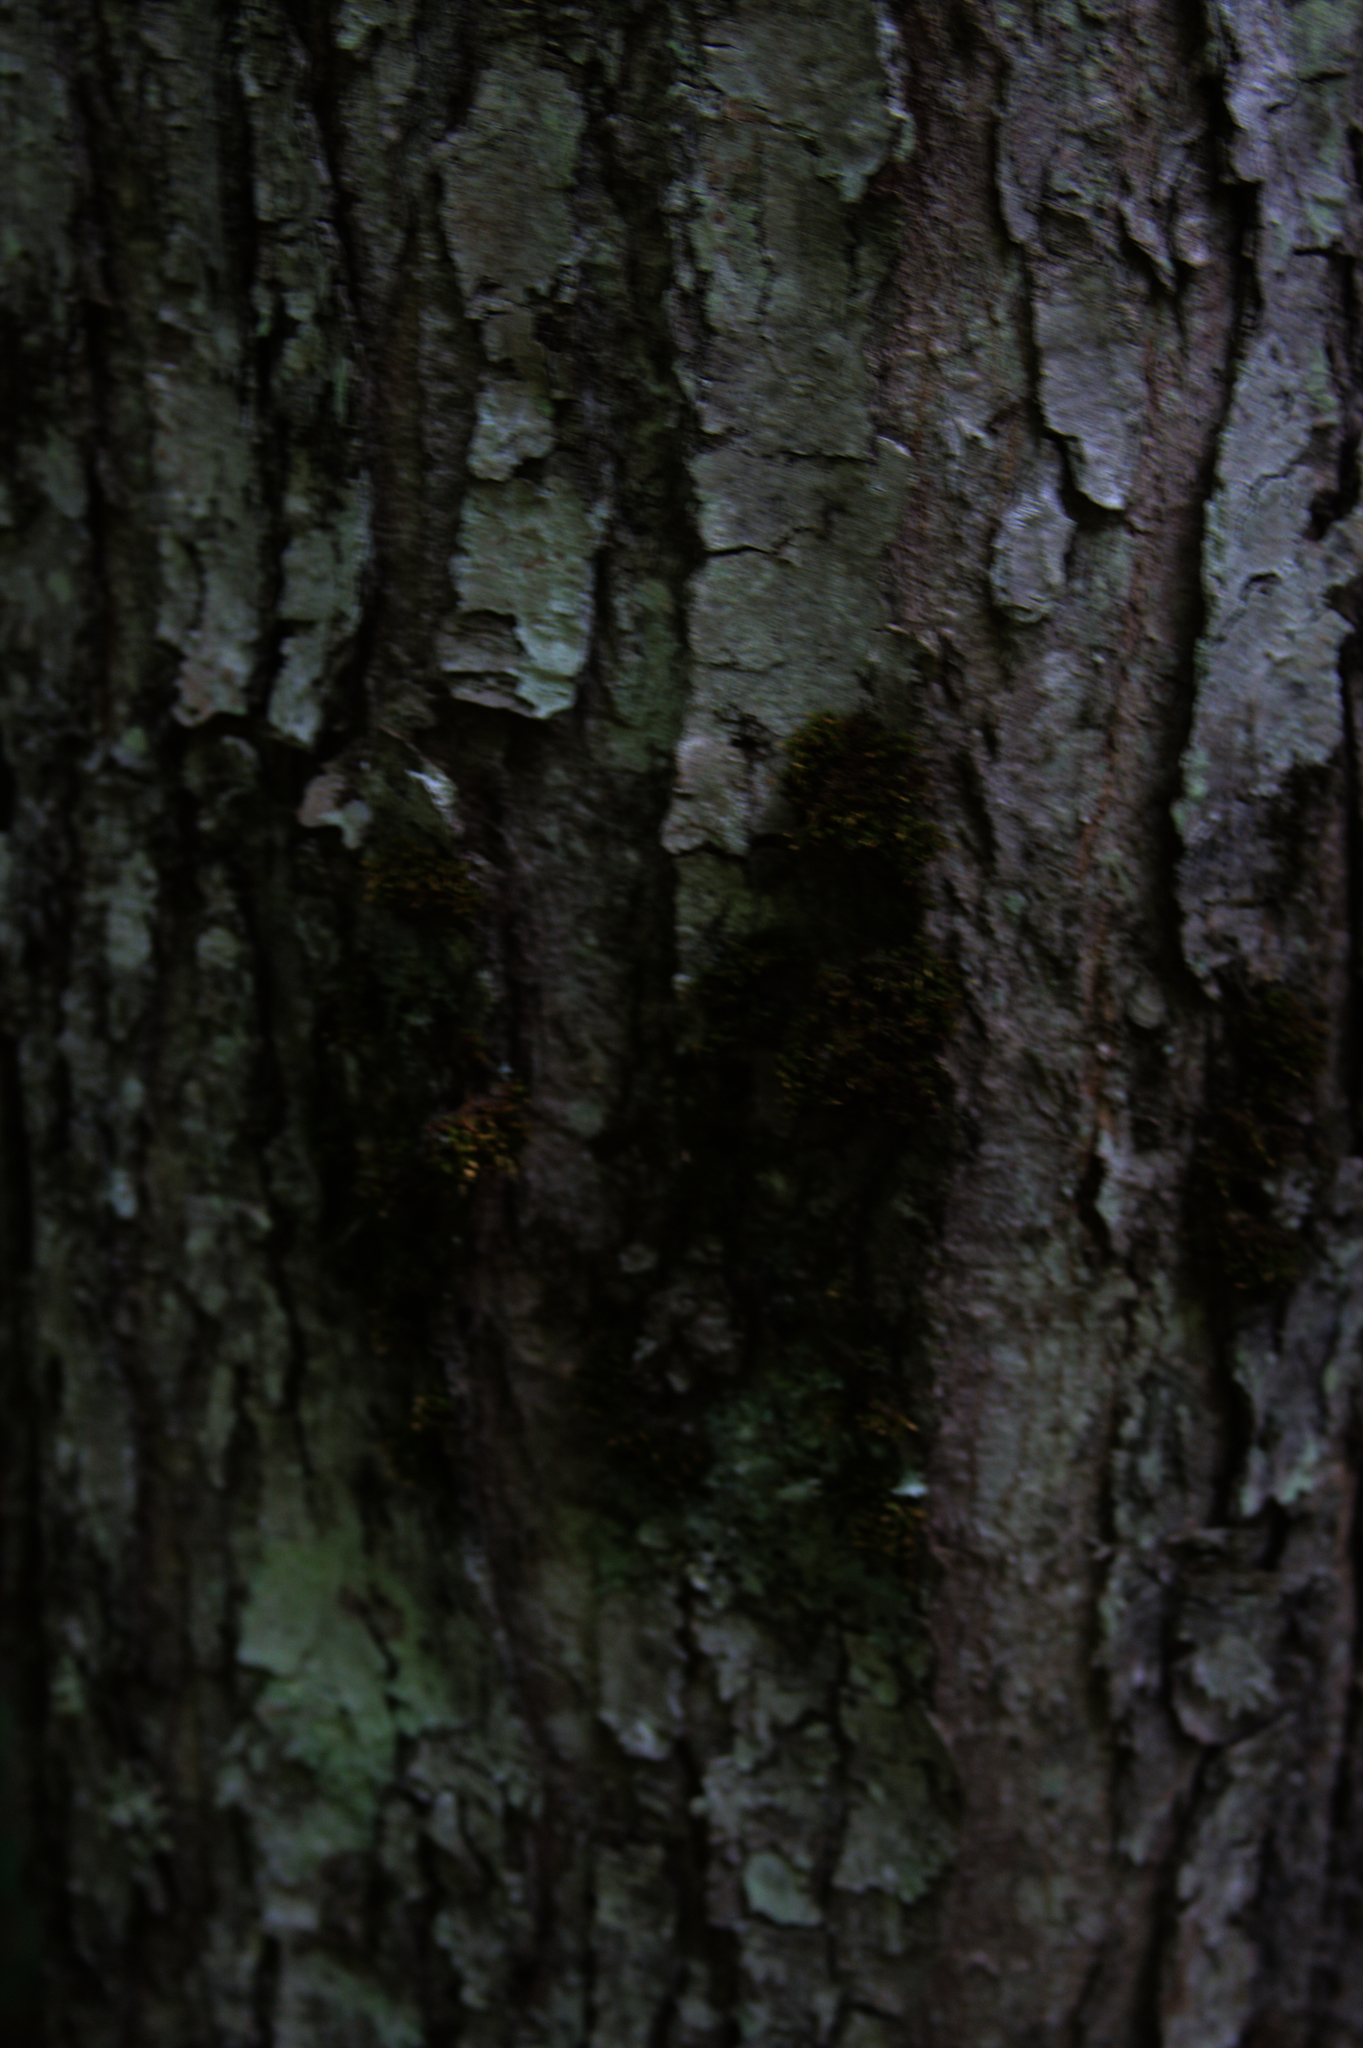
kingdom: Plantae
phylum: Bryophyta
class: Bryopsida
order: Orthotrichales
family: Orthotrichaceae
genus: Ulota
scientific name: Ulota crispa
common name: Crisped pincushion moss
